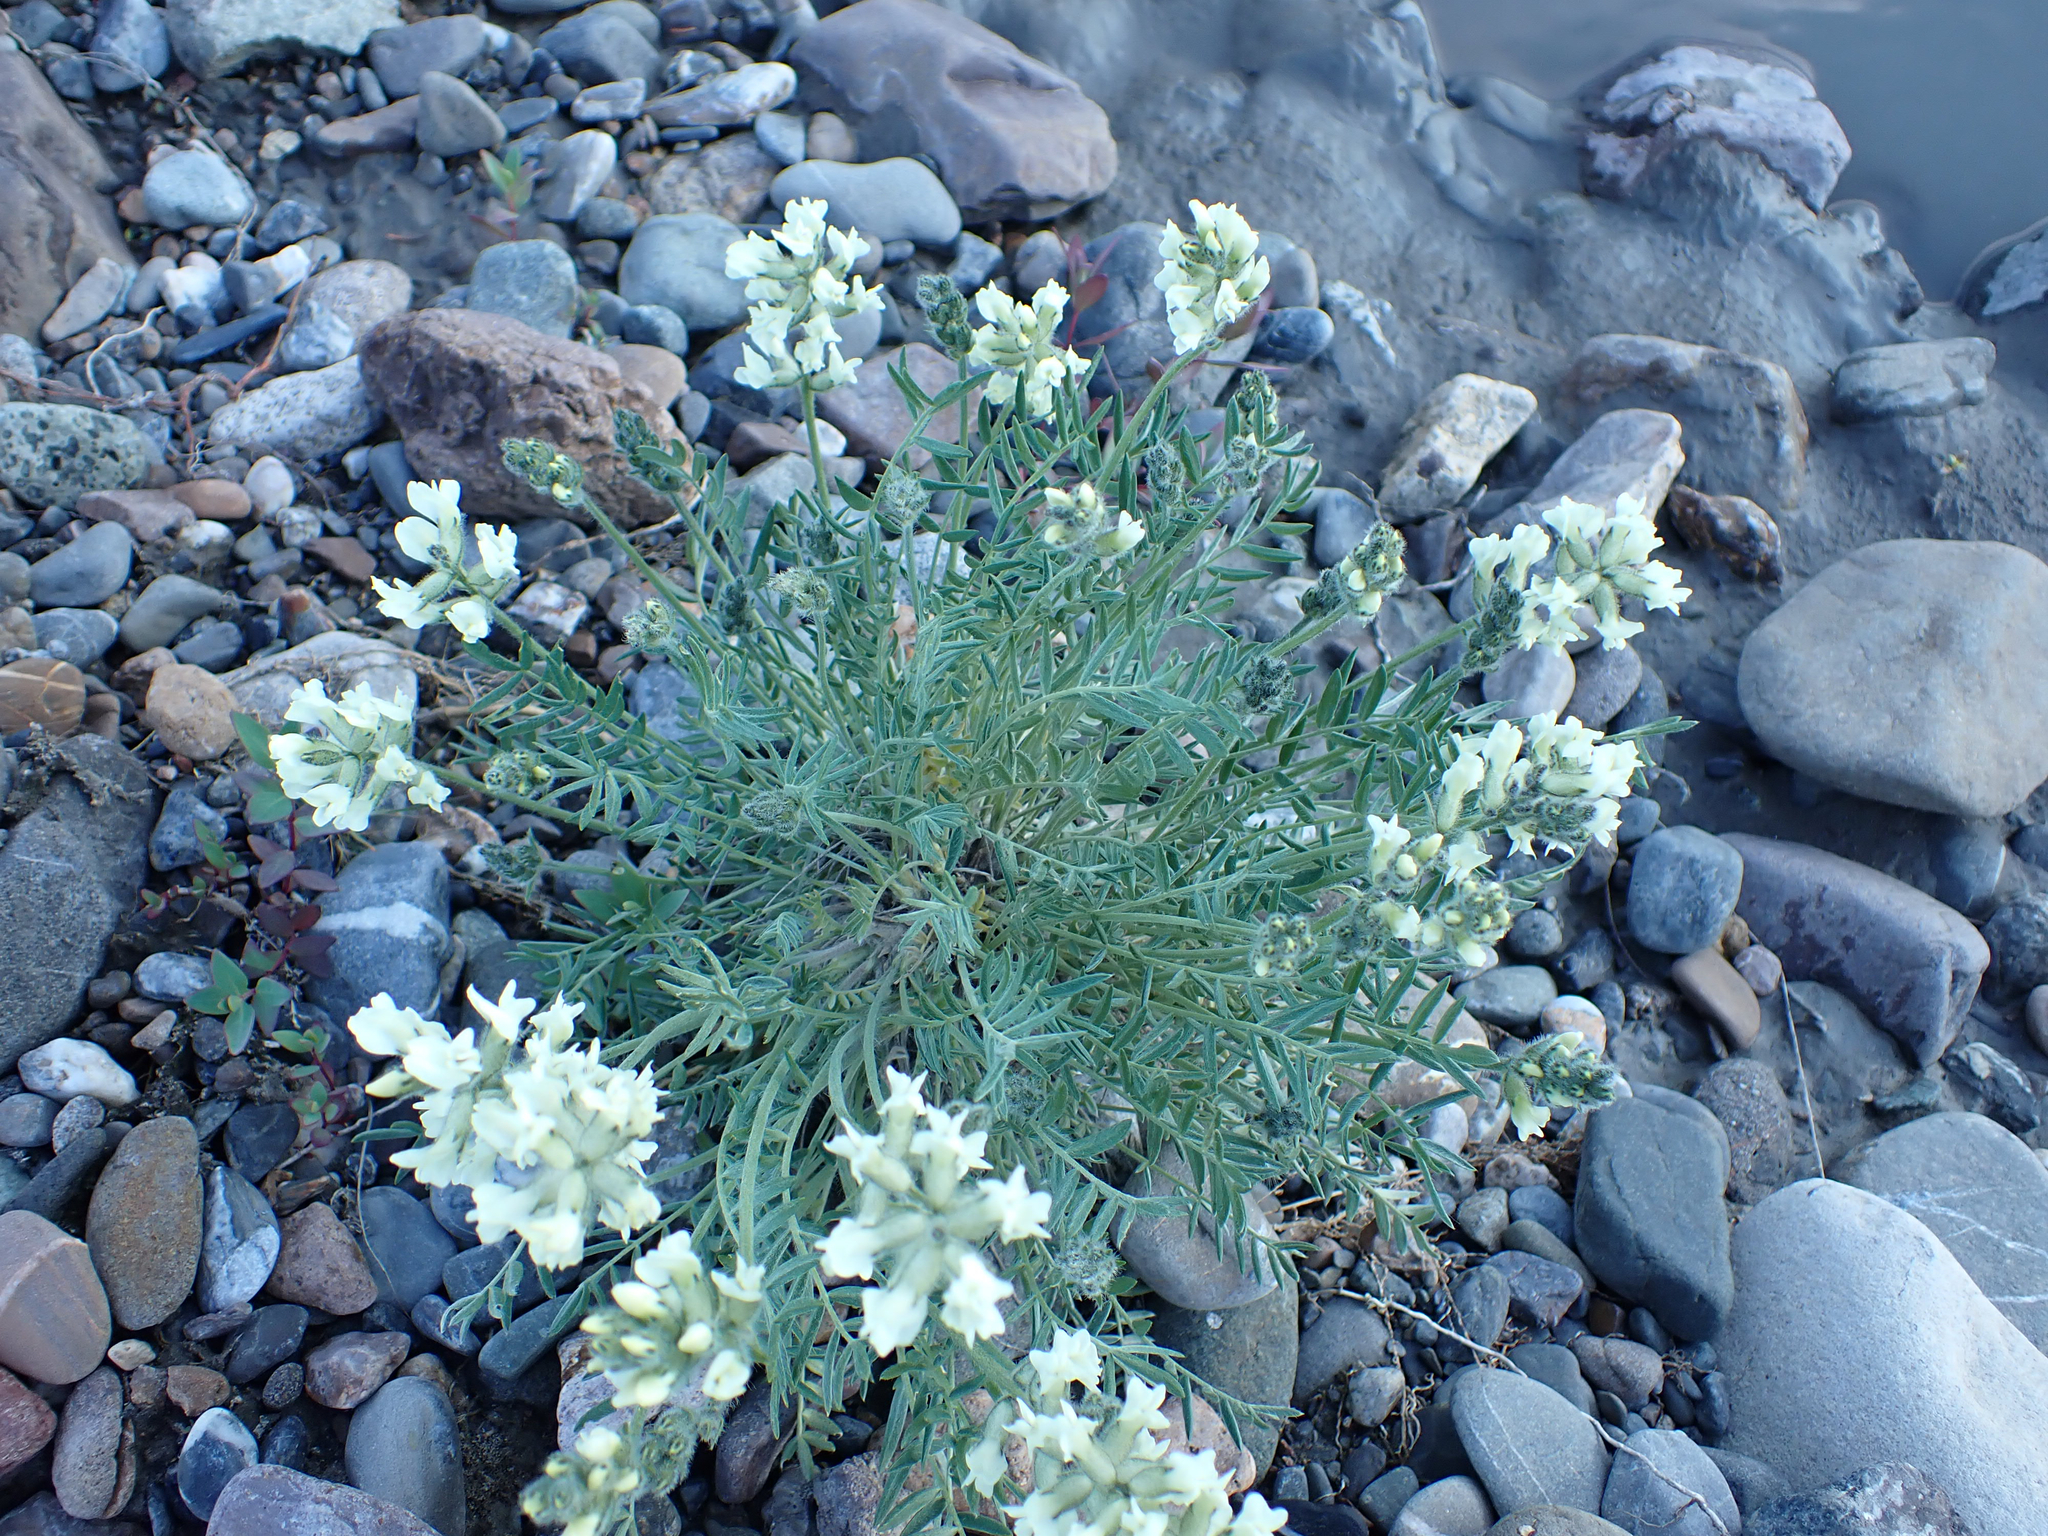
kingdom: Plantae
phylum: Tracheophyta
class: Magnoliopsida
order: Fabales
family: Fabaceae
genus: Oxytropis
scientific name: Oxytropis campestris
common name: Field locoweed
